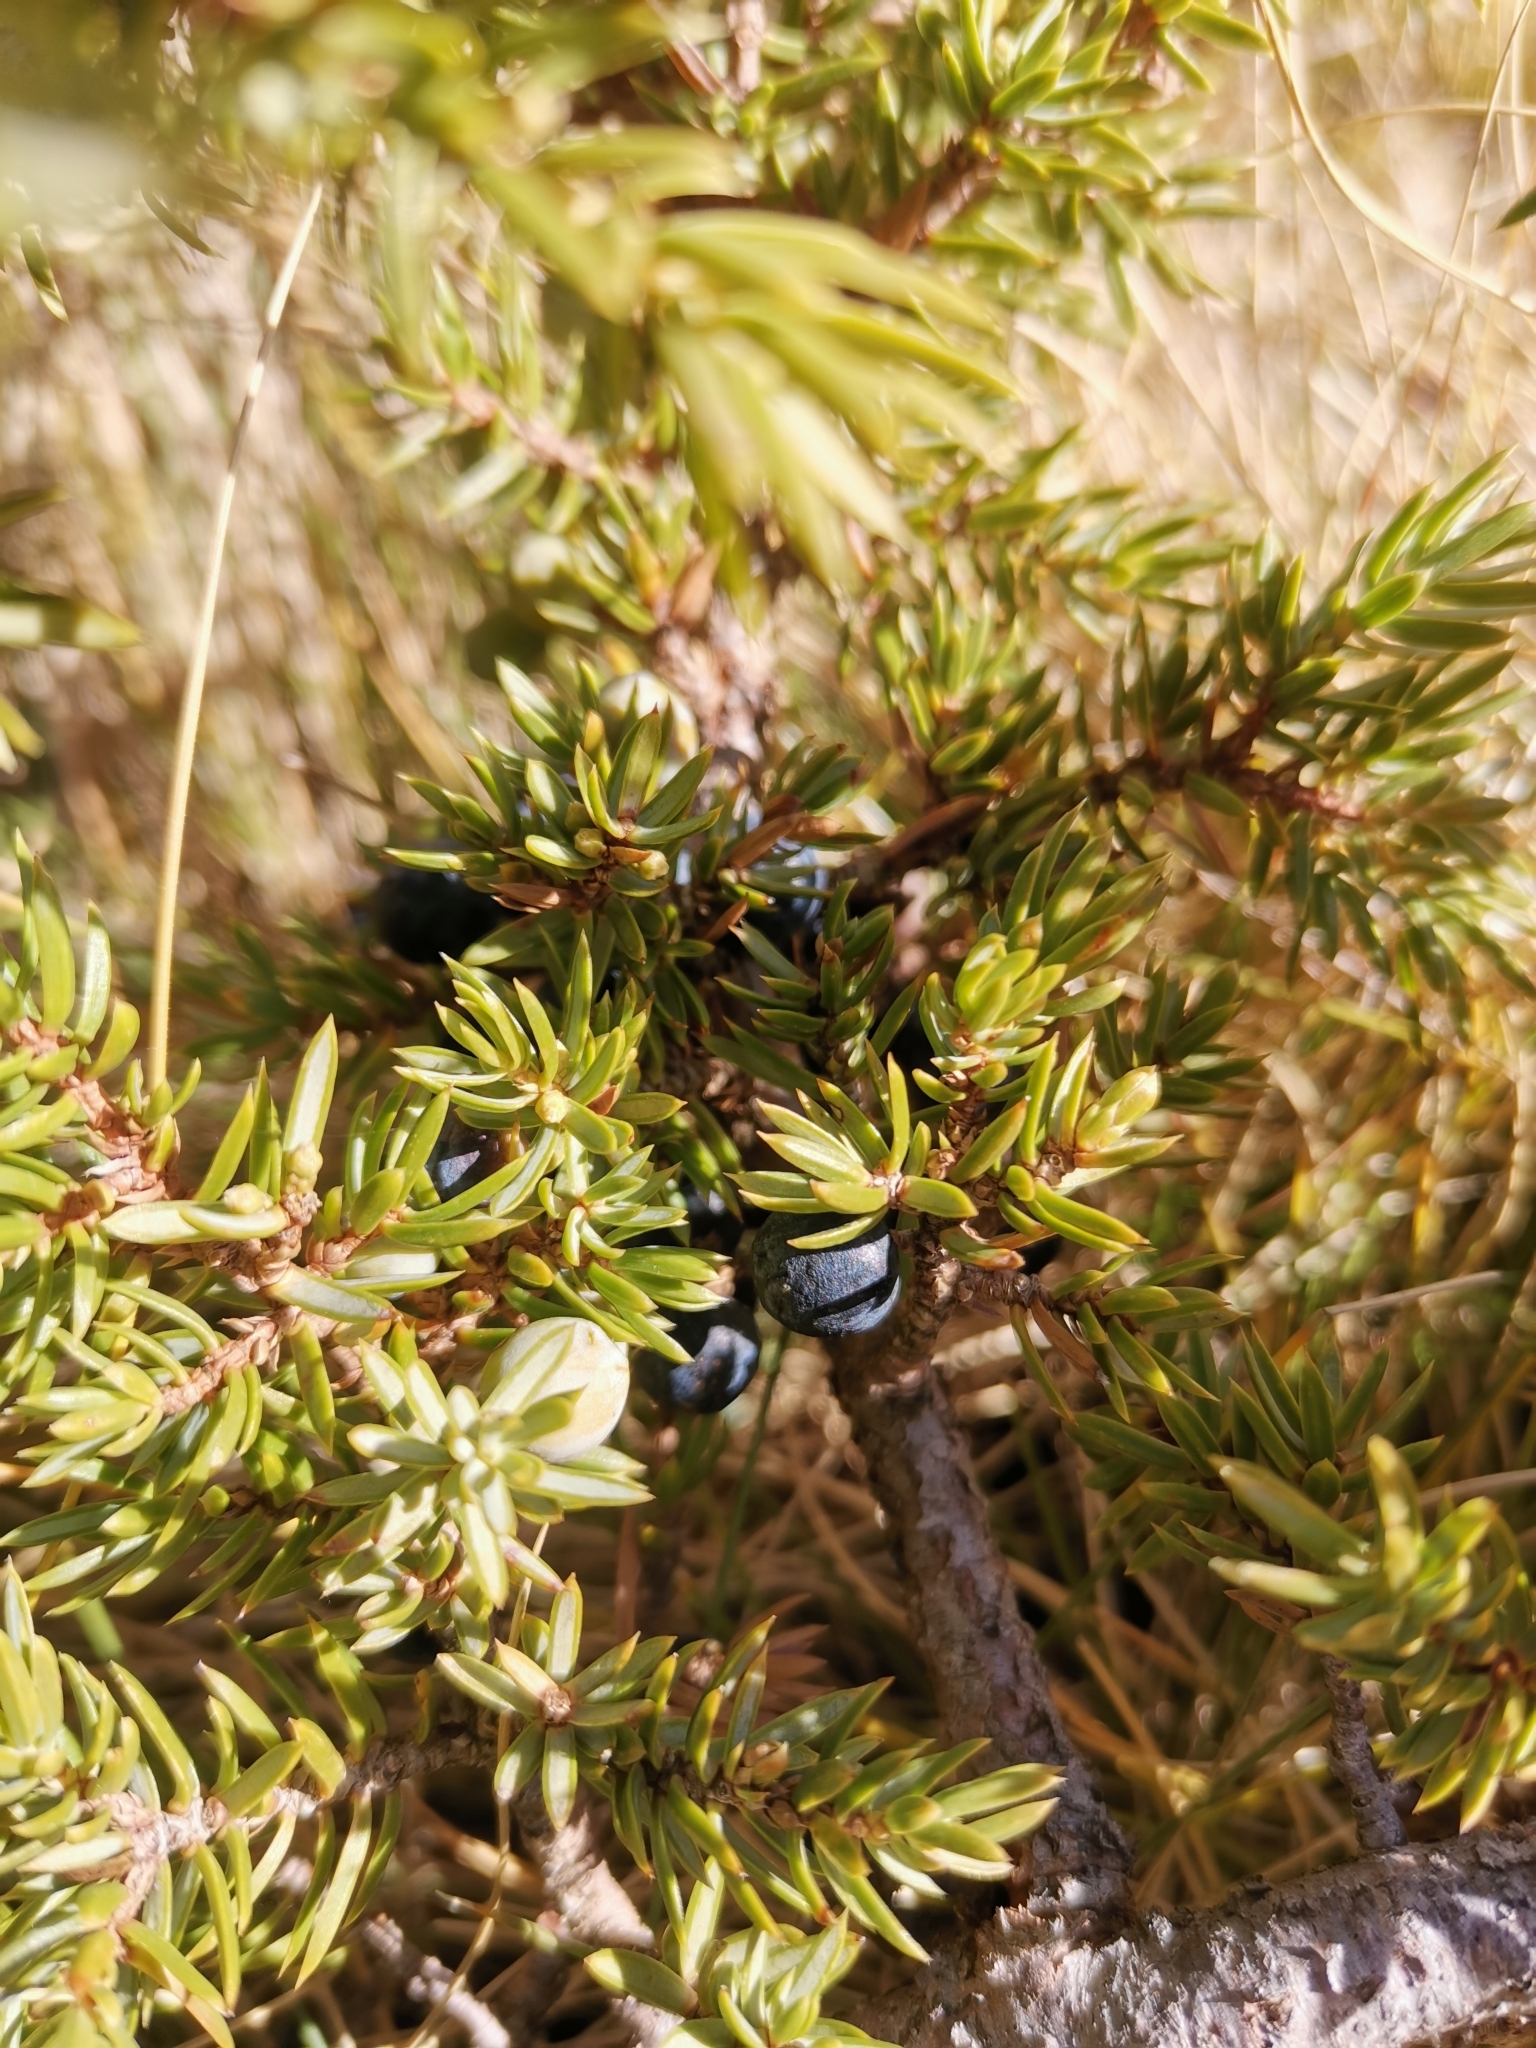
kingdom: Plantae
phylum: Tracheophyta
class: Pinopsida
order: Pinales
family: Cupressaceae
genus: Juniperus
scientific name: Juniperus communis
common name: Common juniper
